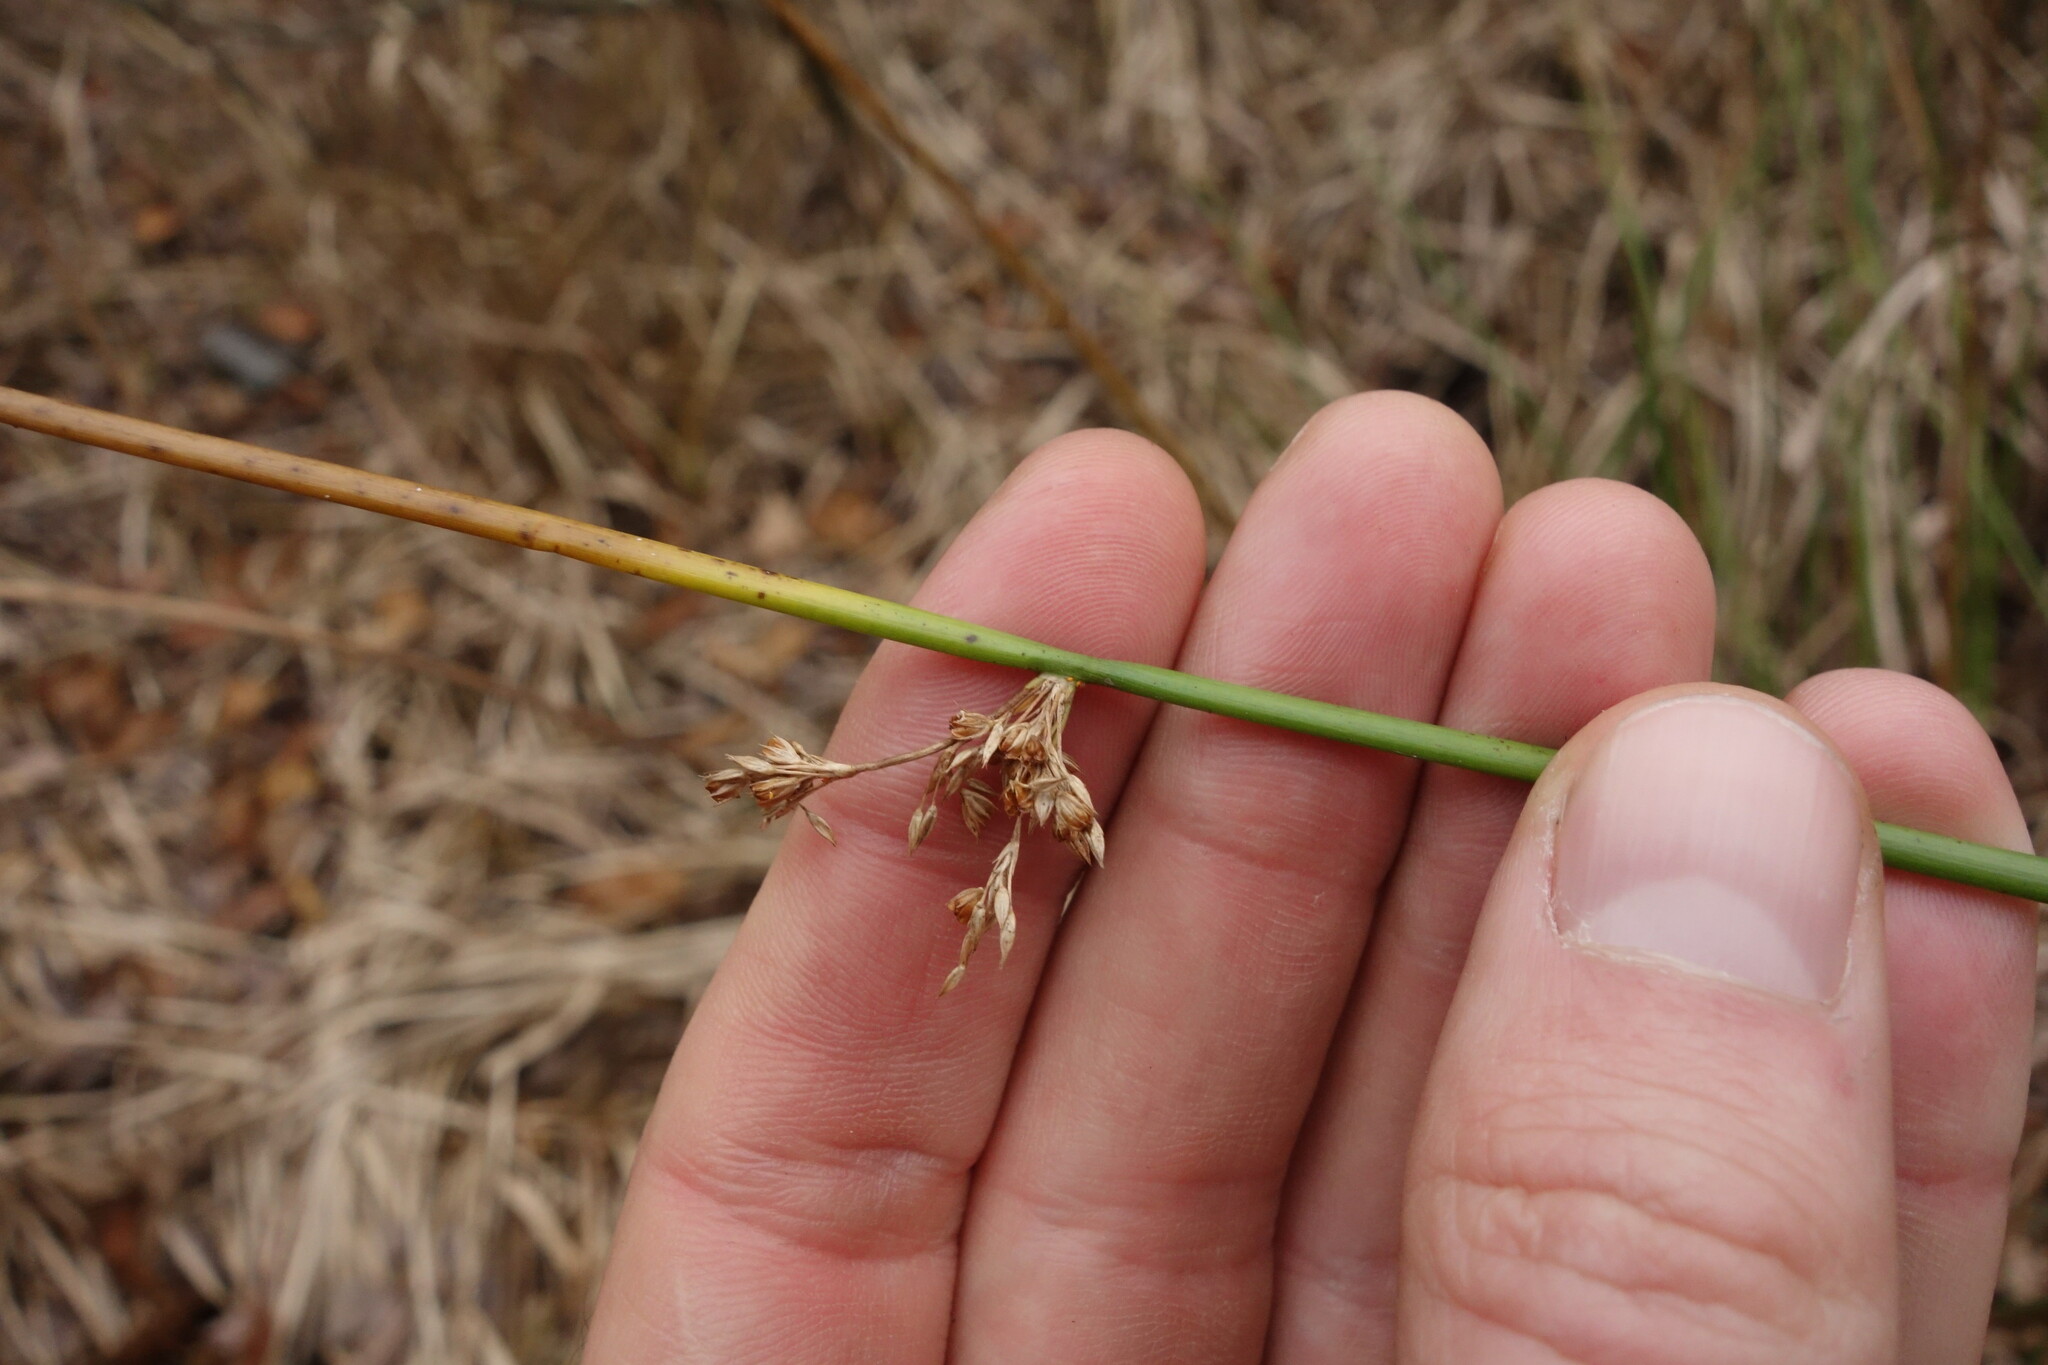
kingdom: Plantae
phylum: Tracheophyta
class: Liliopsida
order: Poales
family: Juncaceae
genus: Juncus
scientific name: Juncus effusus
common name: Soft rush
